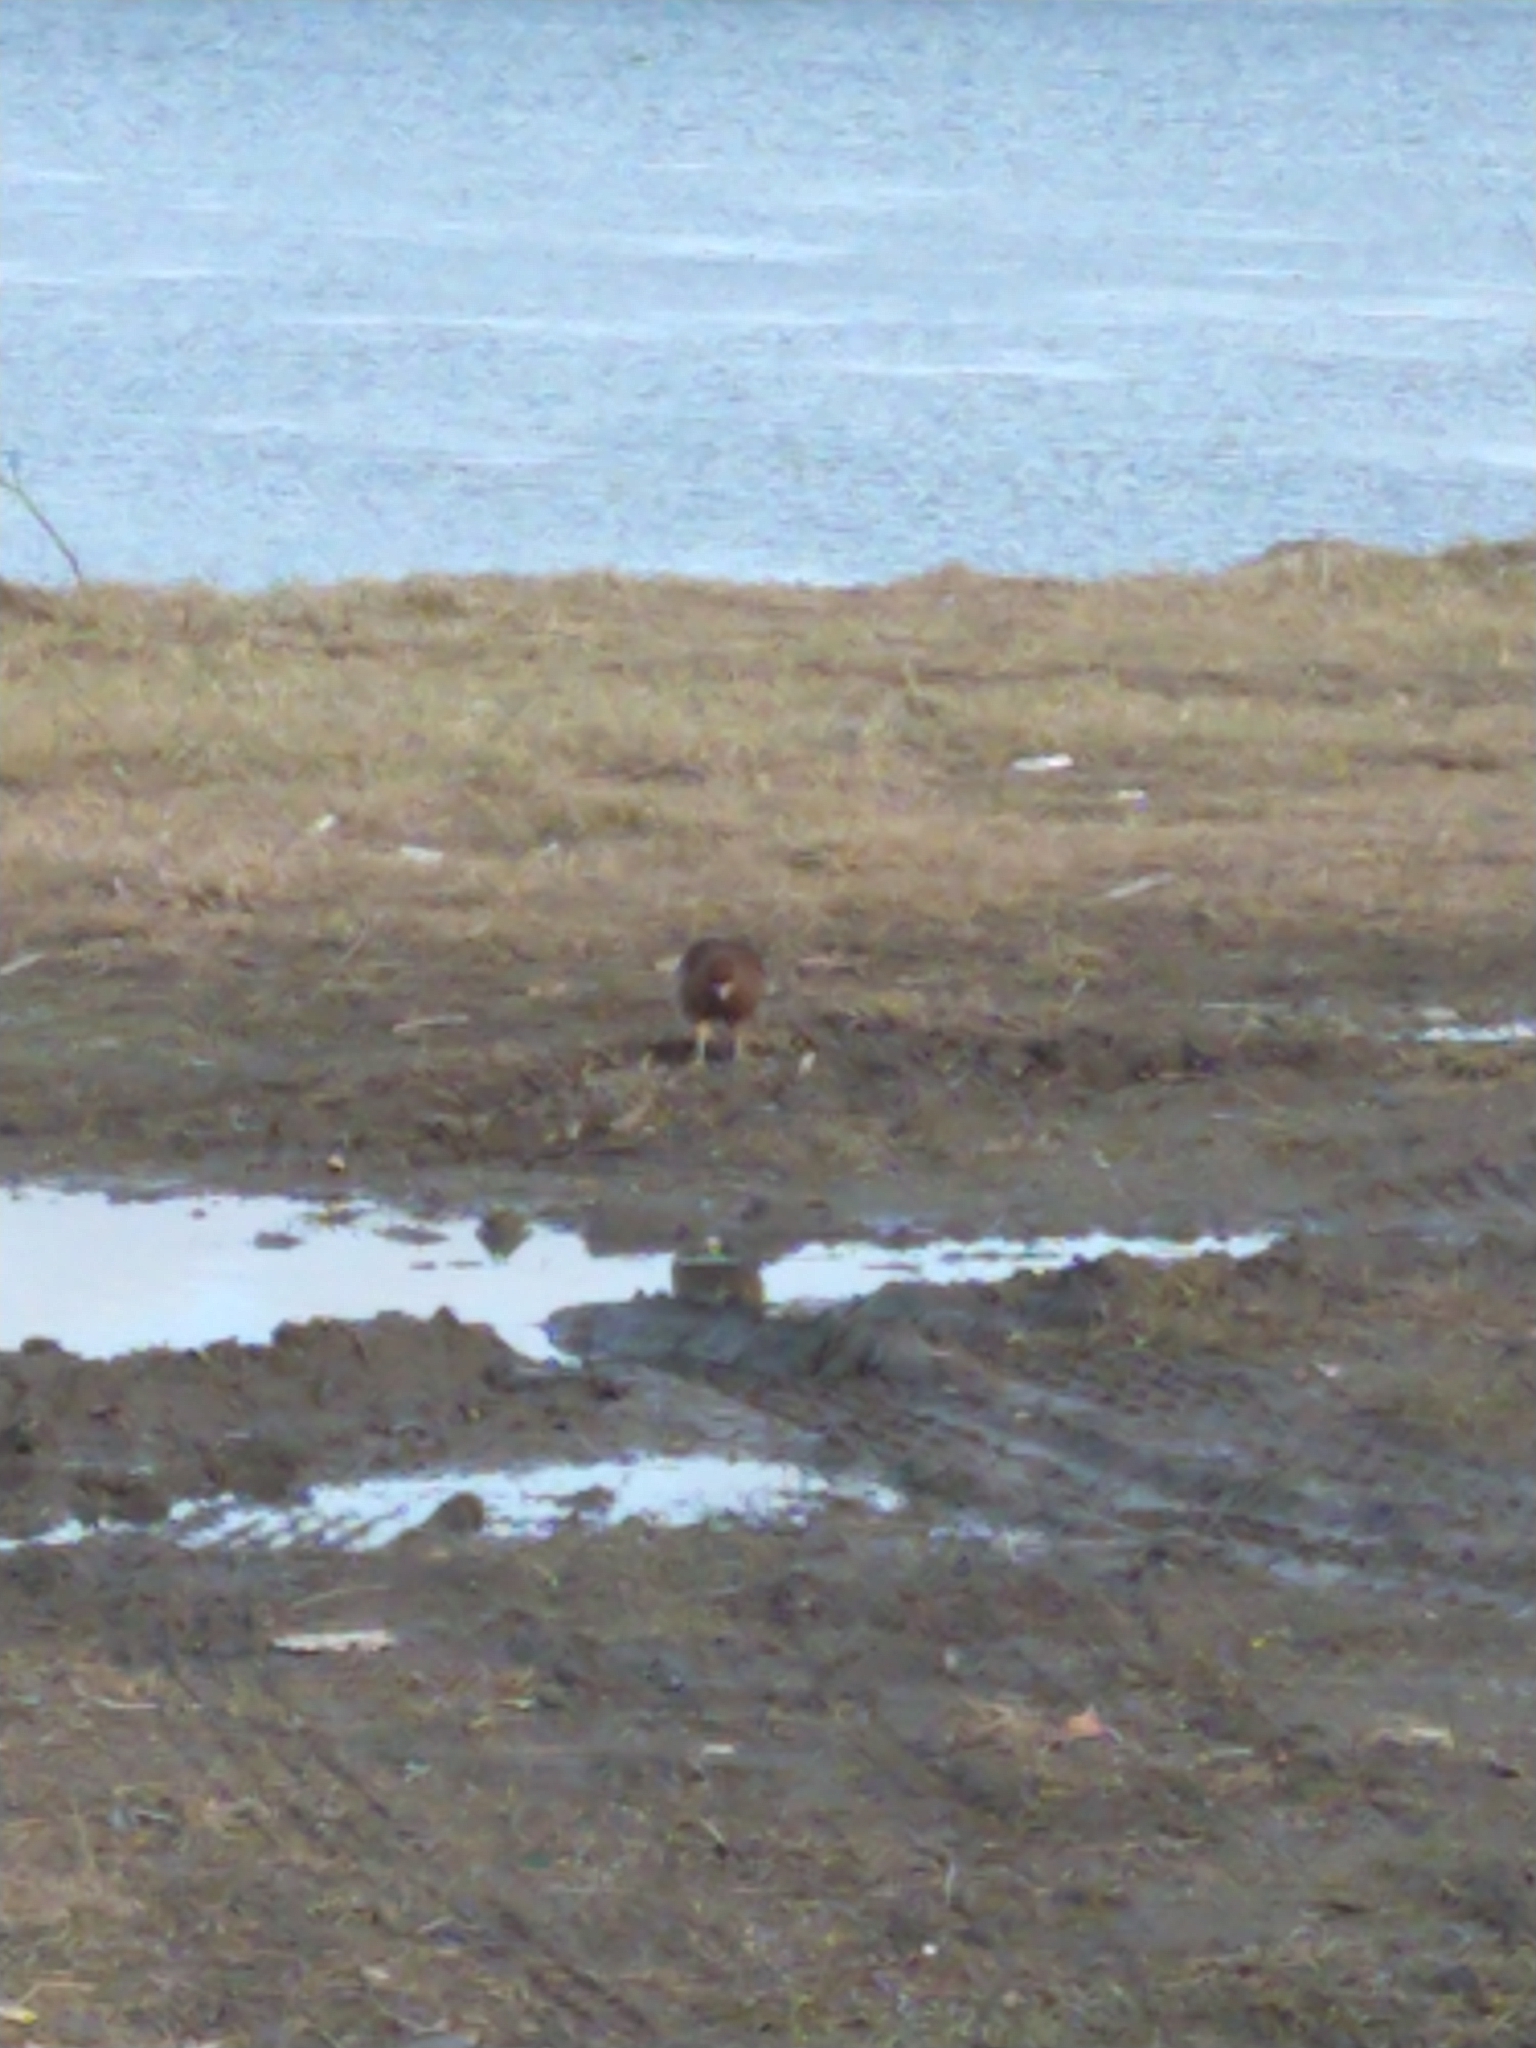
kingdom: Animalia
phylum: Chordata
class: Aves
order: Falconiformes
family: Falconidae
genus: Daptrius
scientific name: Daptrius
